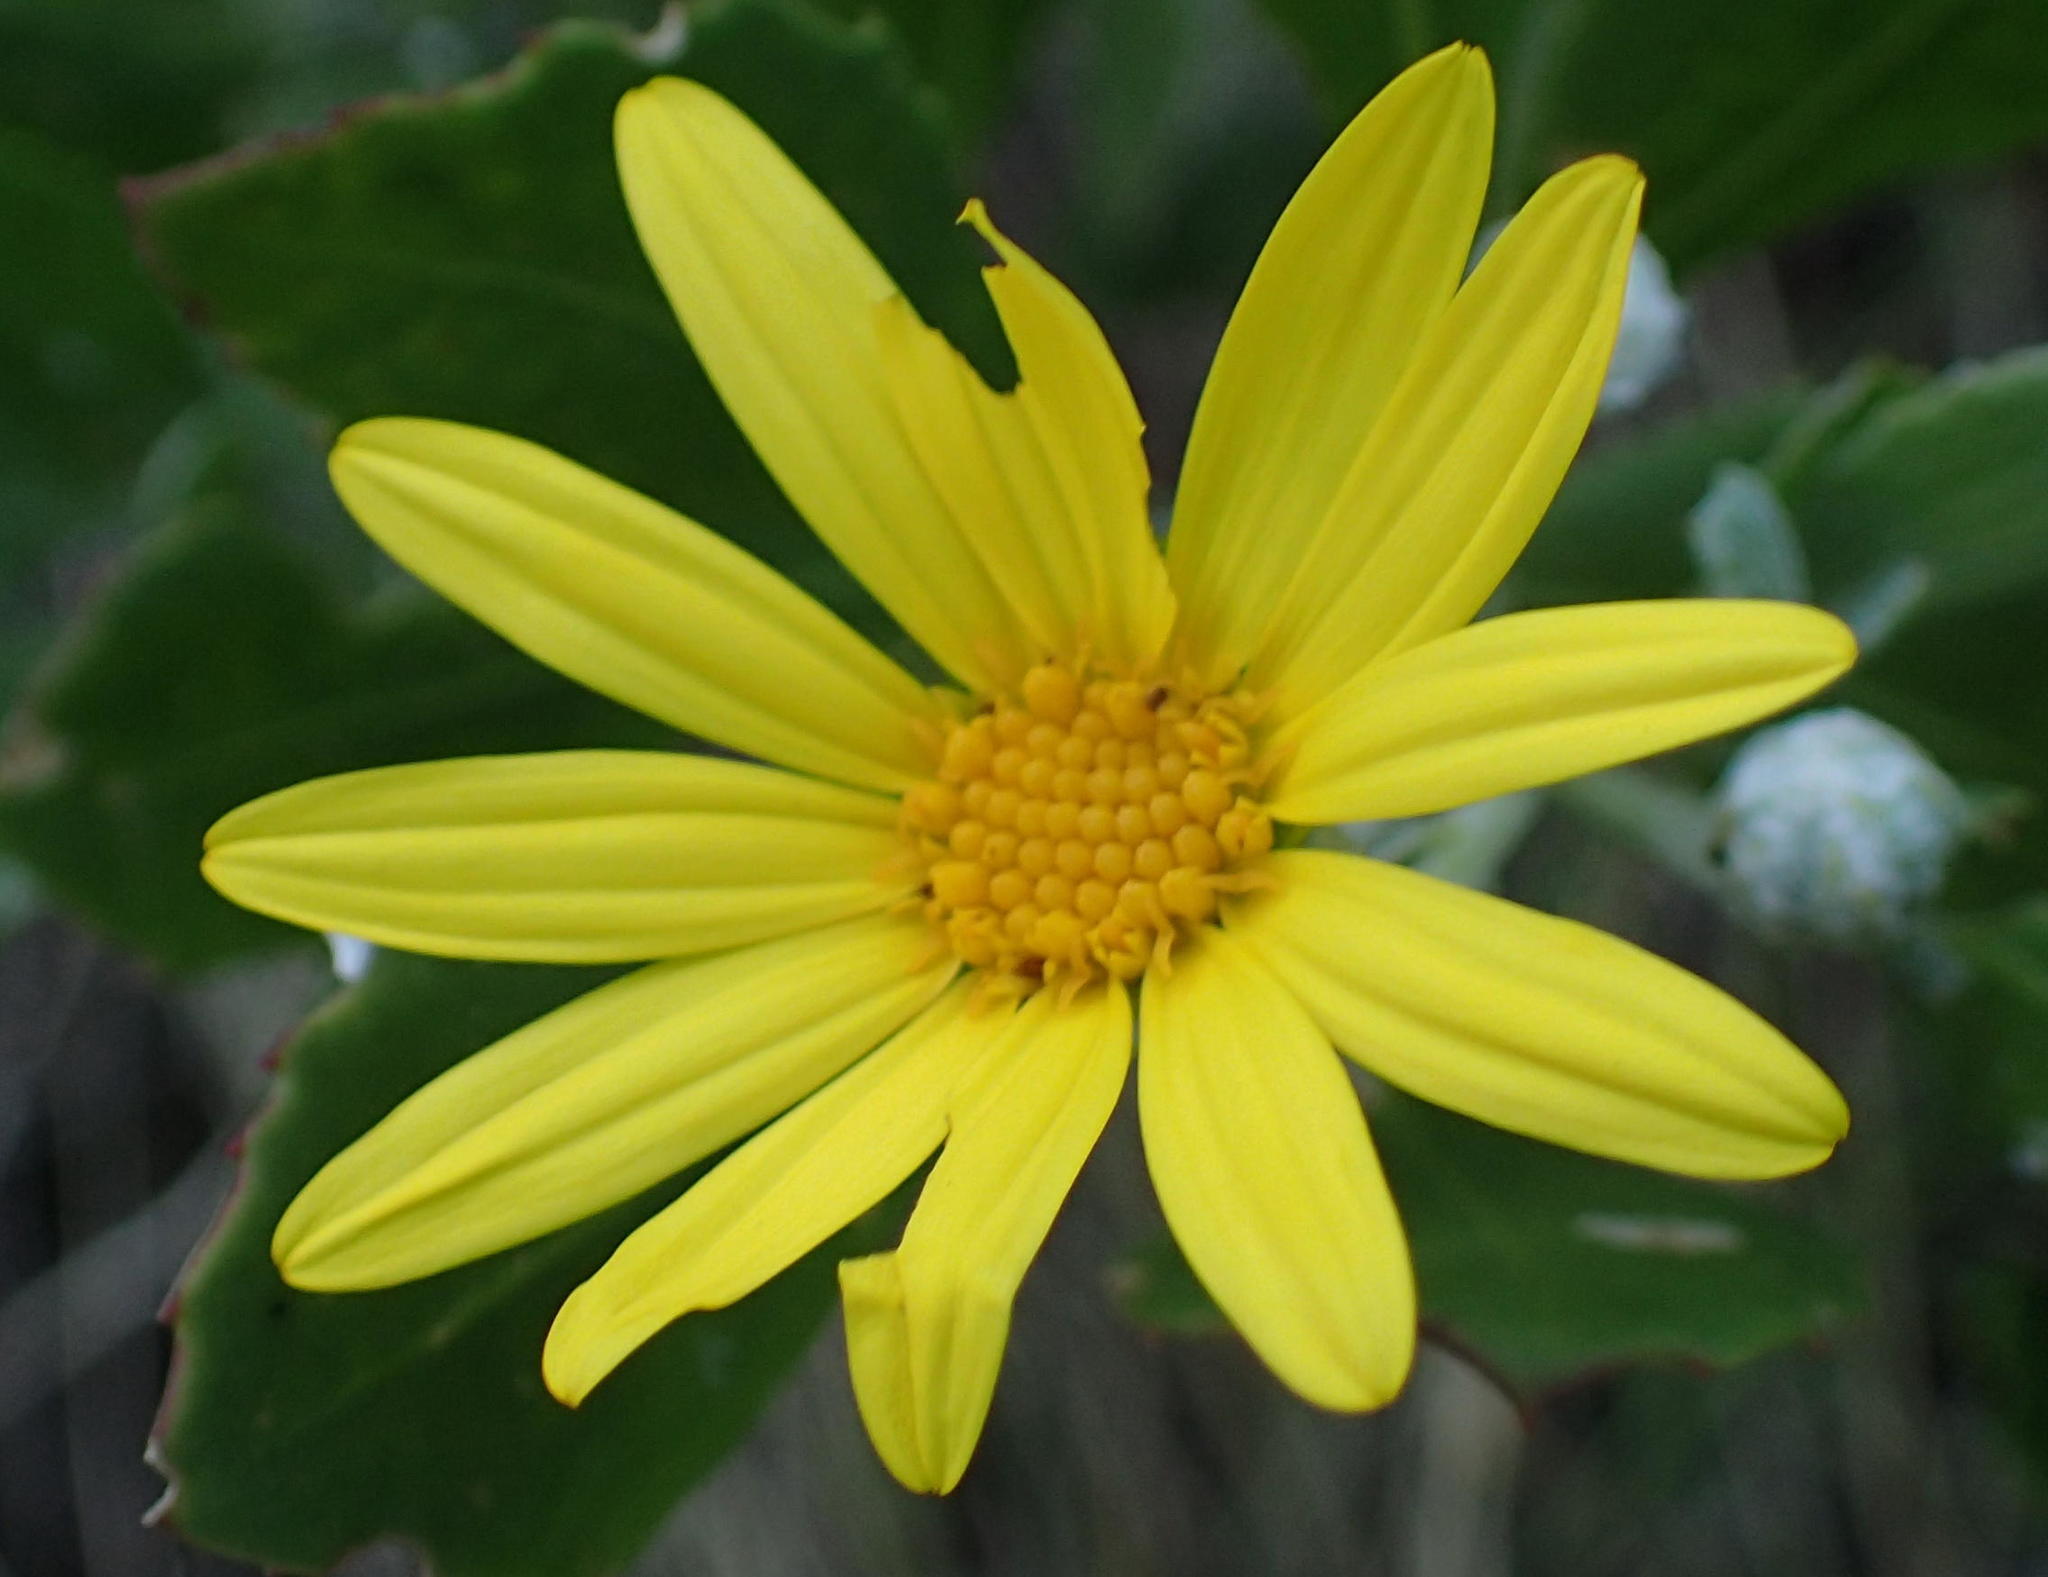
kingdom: Plantae
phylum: Tracheophyta
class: Magnoliopsida
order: Asterales
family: Asteraceae
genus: Osteospermum
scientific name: Osteospermum moniliferum
